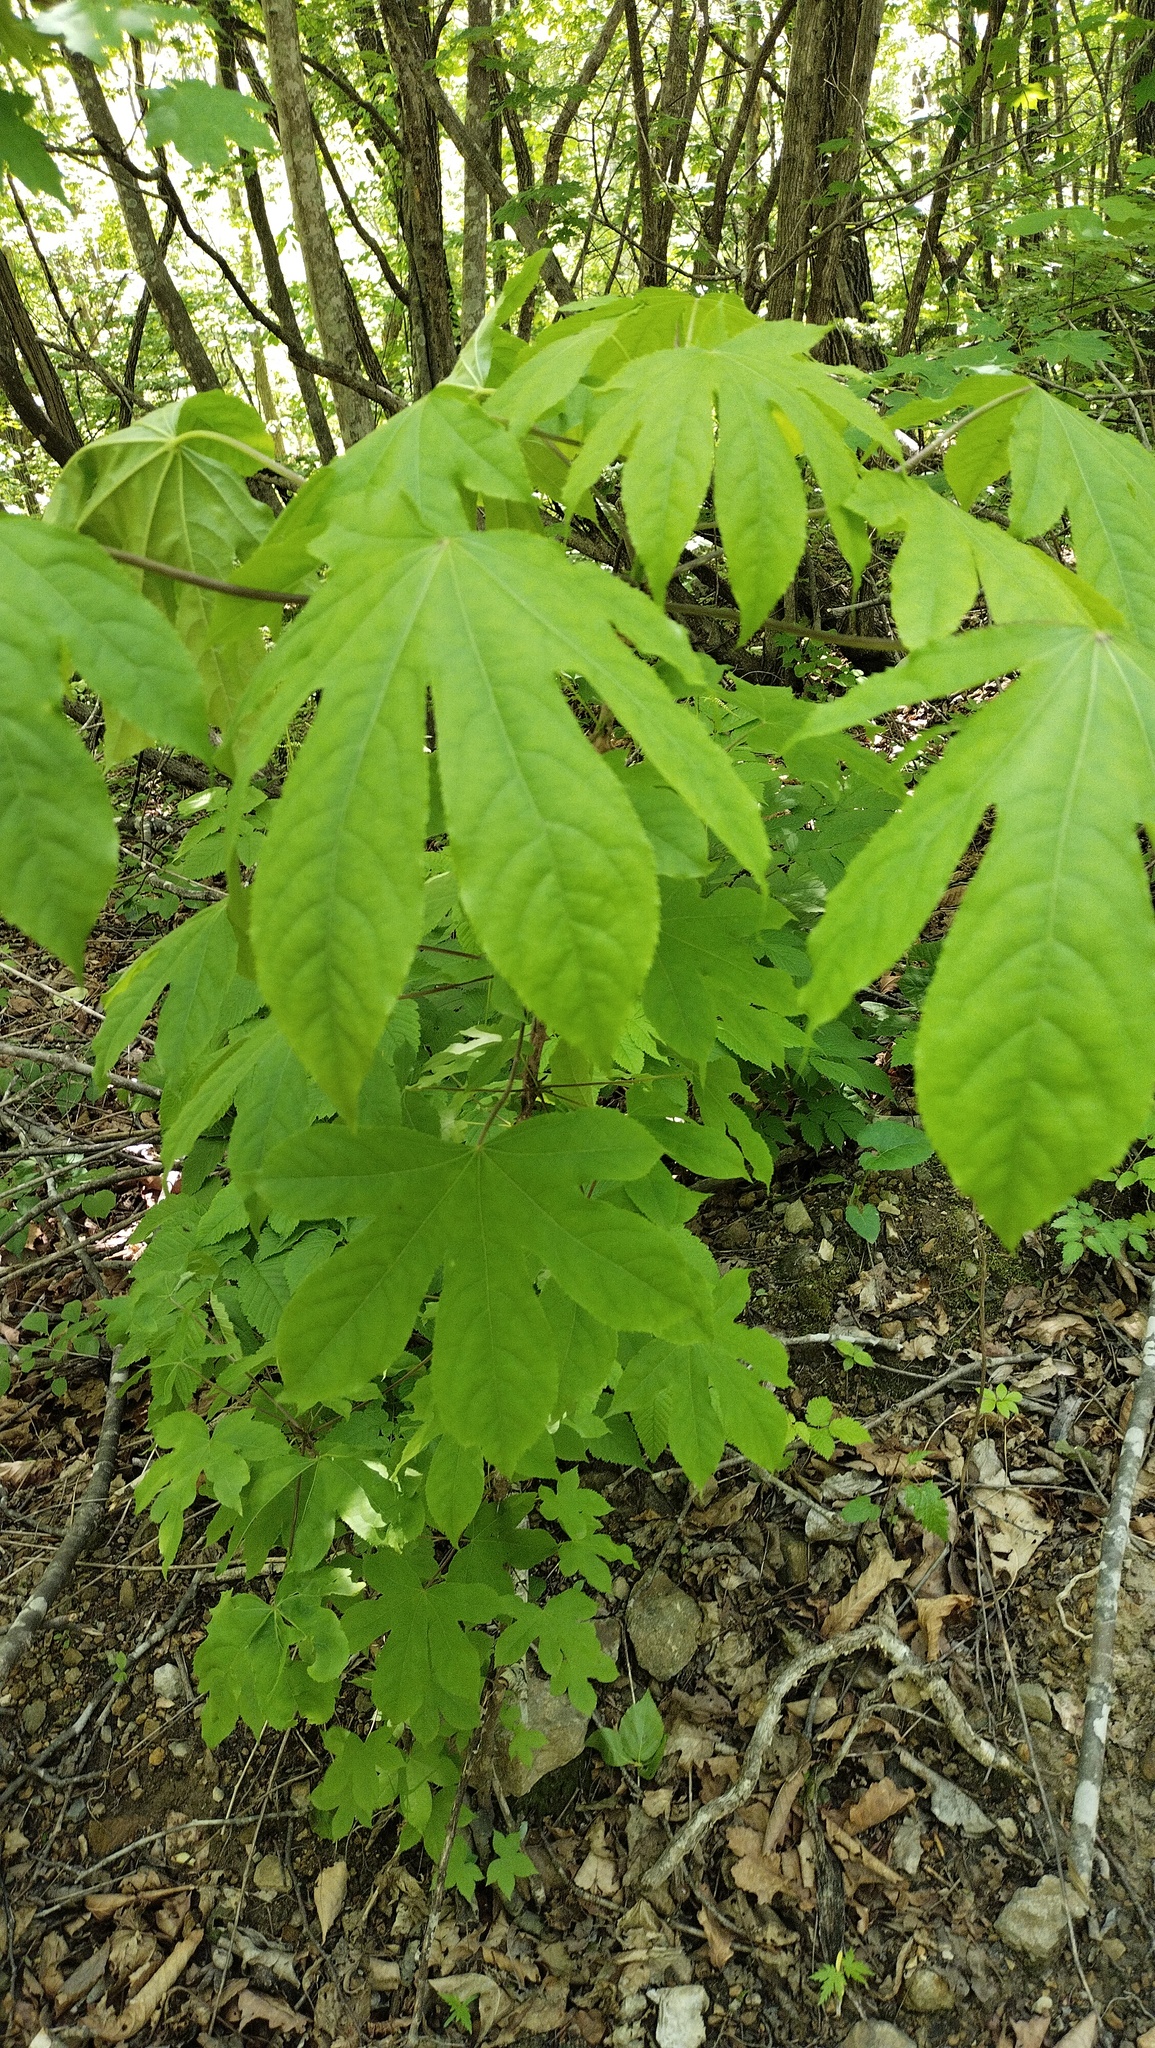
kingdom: Plantae
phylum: Tracheophyta
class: Magnoliopsida
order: Apiales
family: Araliaceae
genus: Kalopanax
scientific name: Kalopanax septemlobus
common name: Castor aralia
